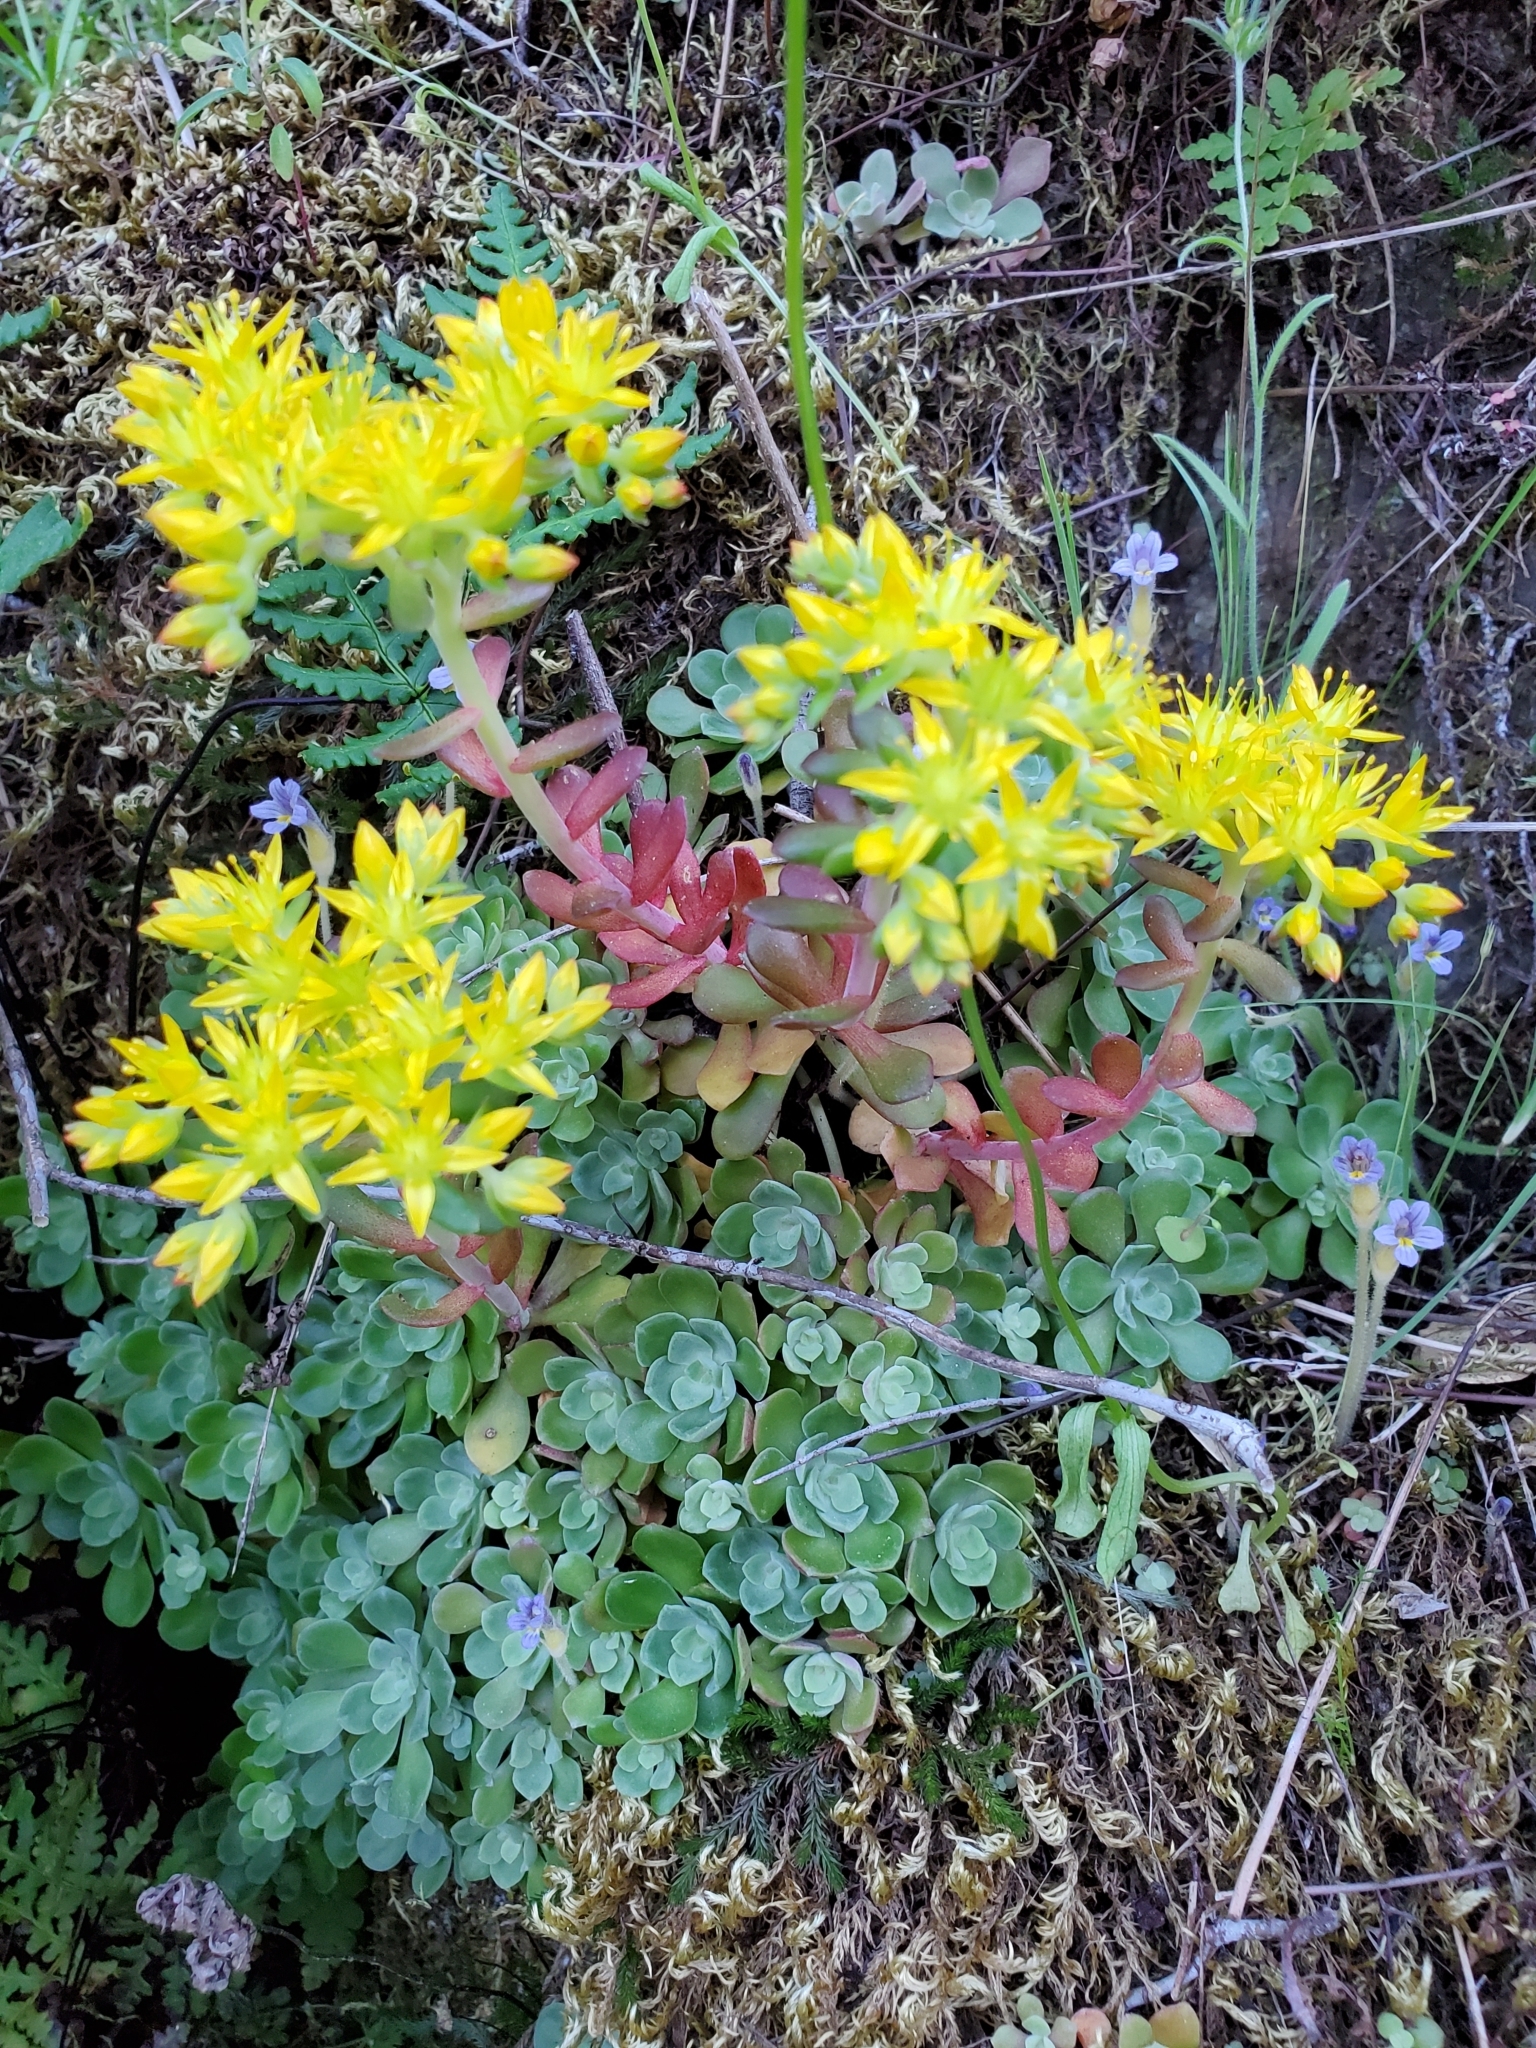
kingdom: Plantae
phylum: Tracheophyta
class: Magnoliopsida
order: Saxifragales
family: Crassulaceae
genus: Sedum
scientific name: Sedum spathulifolium
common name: Colorado stonecrop
